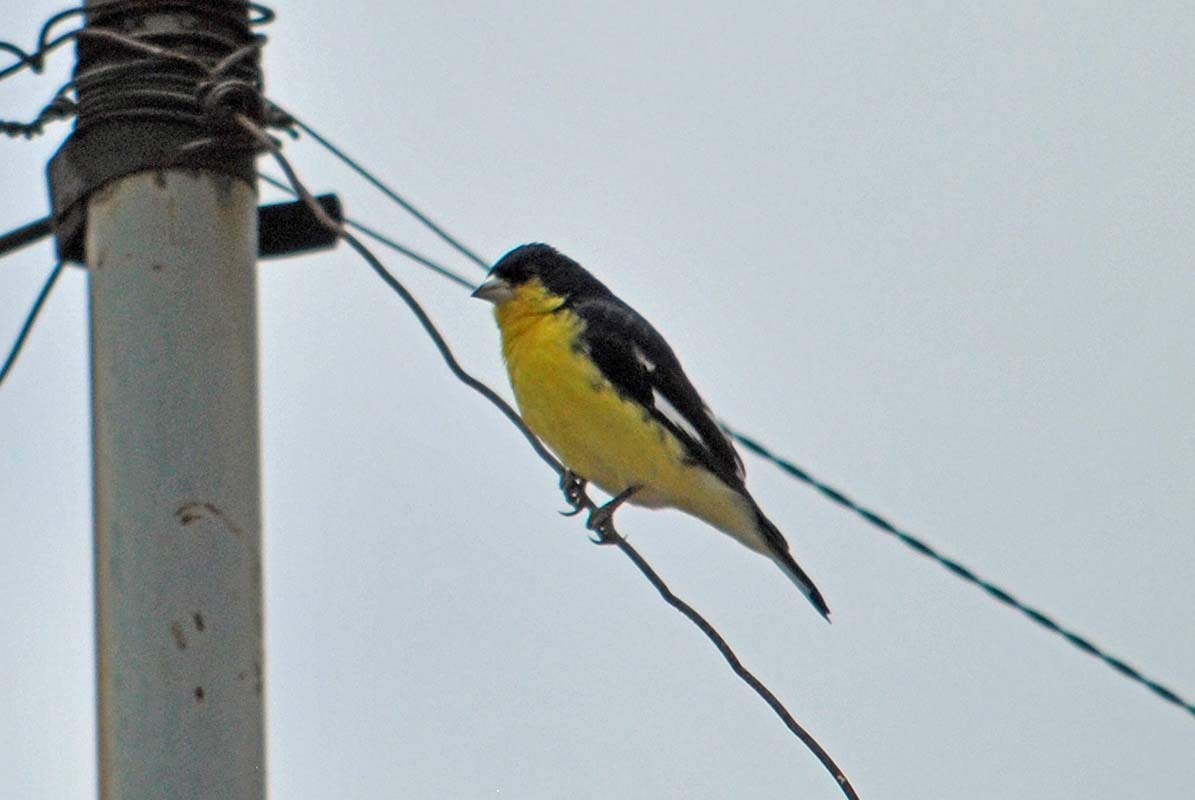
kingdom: Animalia
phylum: Chordata
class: Aves
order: Passeriformes
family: Fringillidae
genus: Spinus
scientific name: Spinus psaltria
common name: Lesser goldfinch
